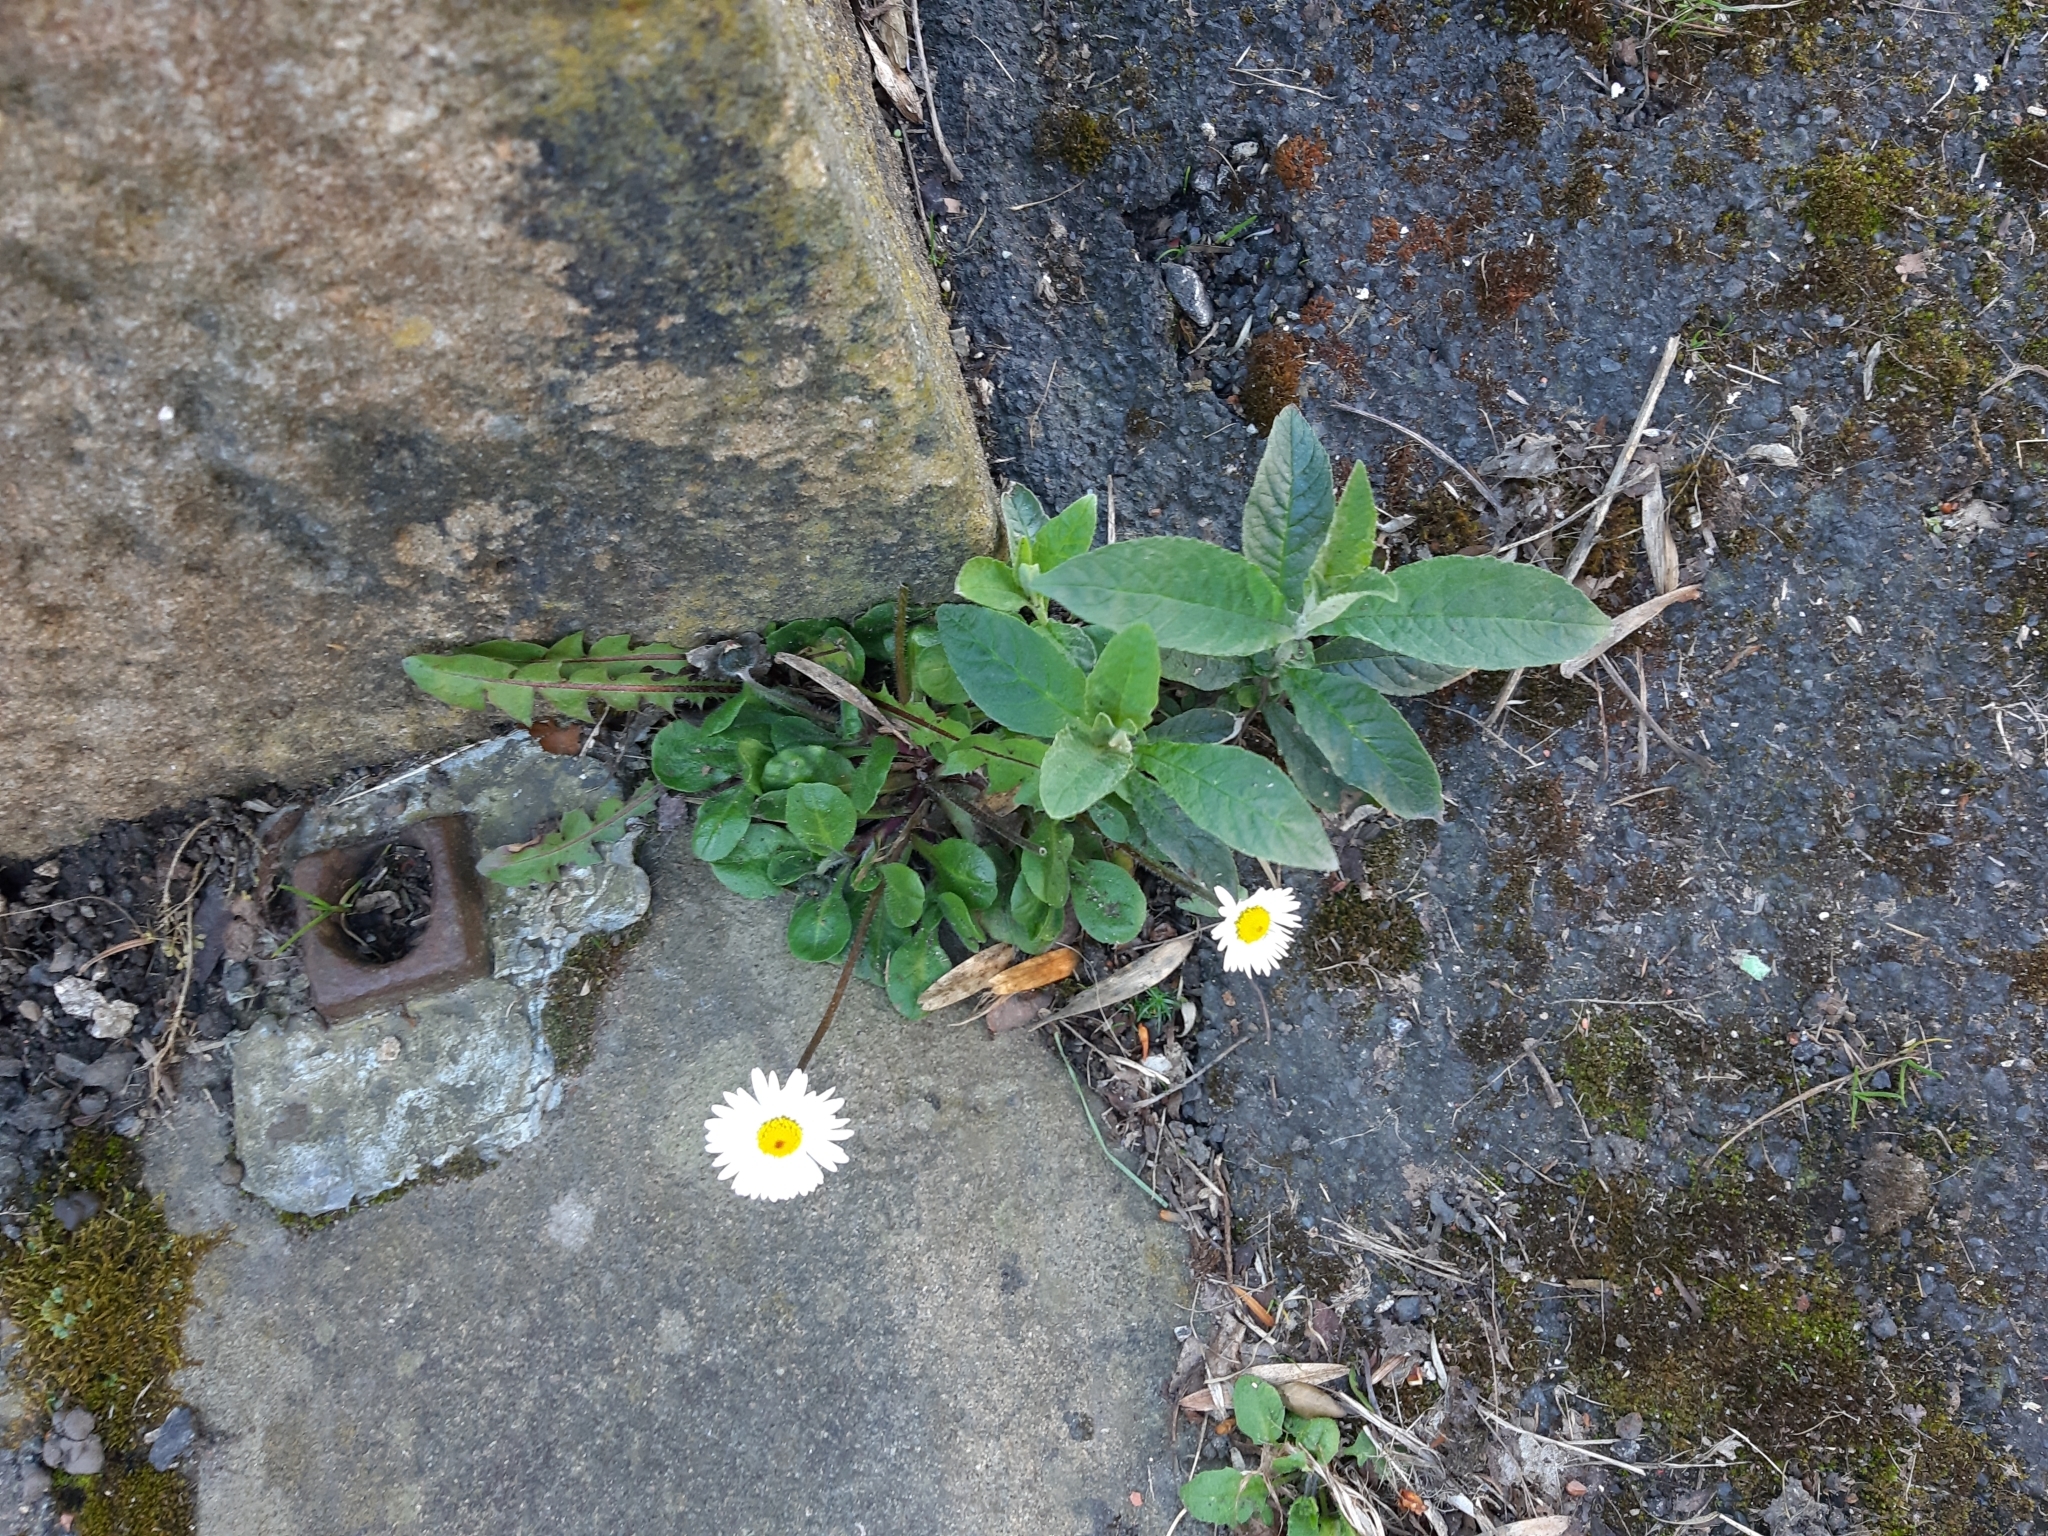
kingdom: Plantae
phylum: Tracheophyta
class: Magnoliopsida
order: Asterales
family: Asteraceae
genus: Bellis
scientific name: Bellis perennis
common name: Lawndaisy
